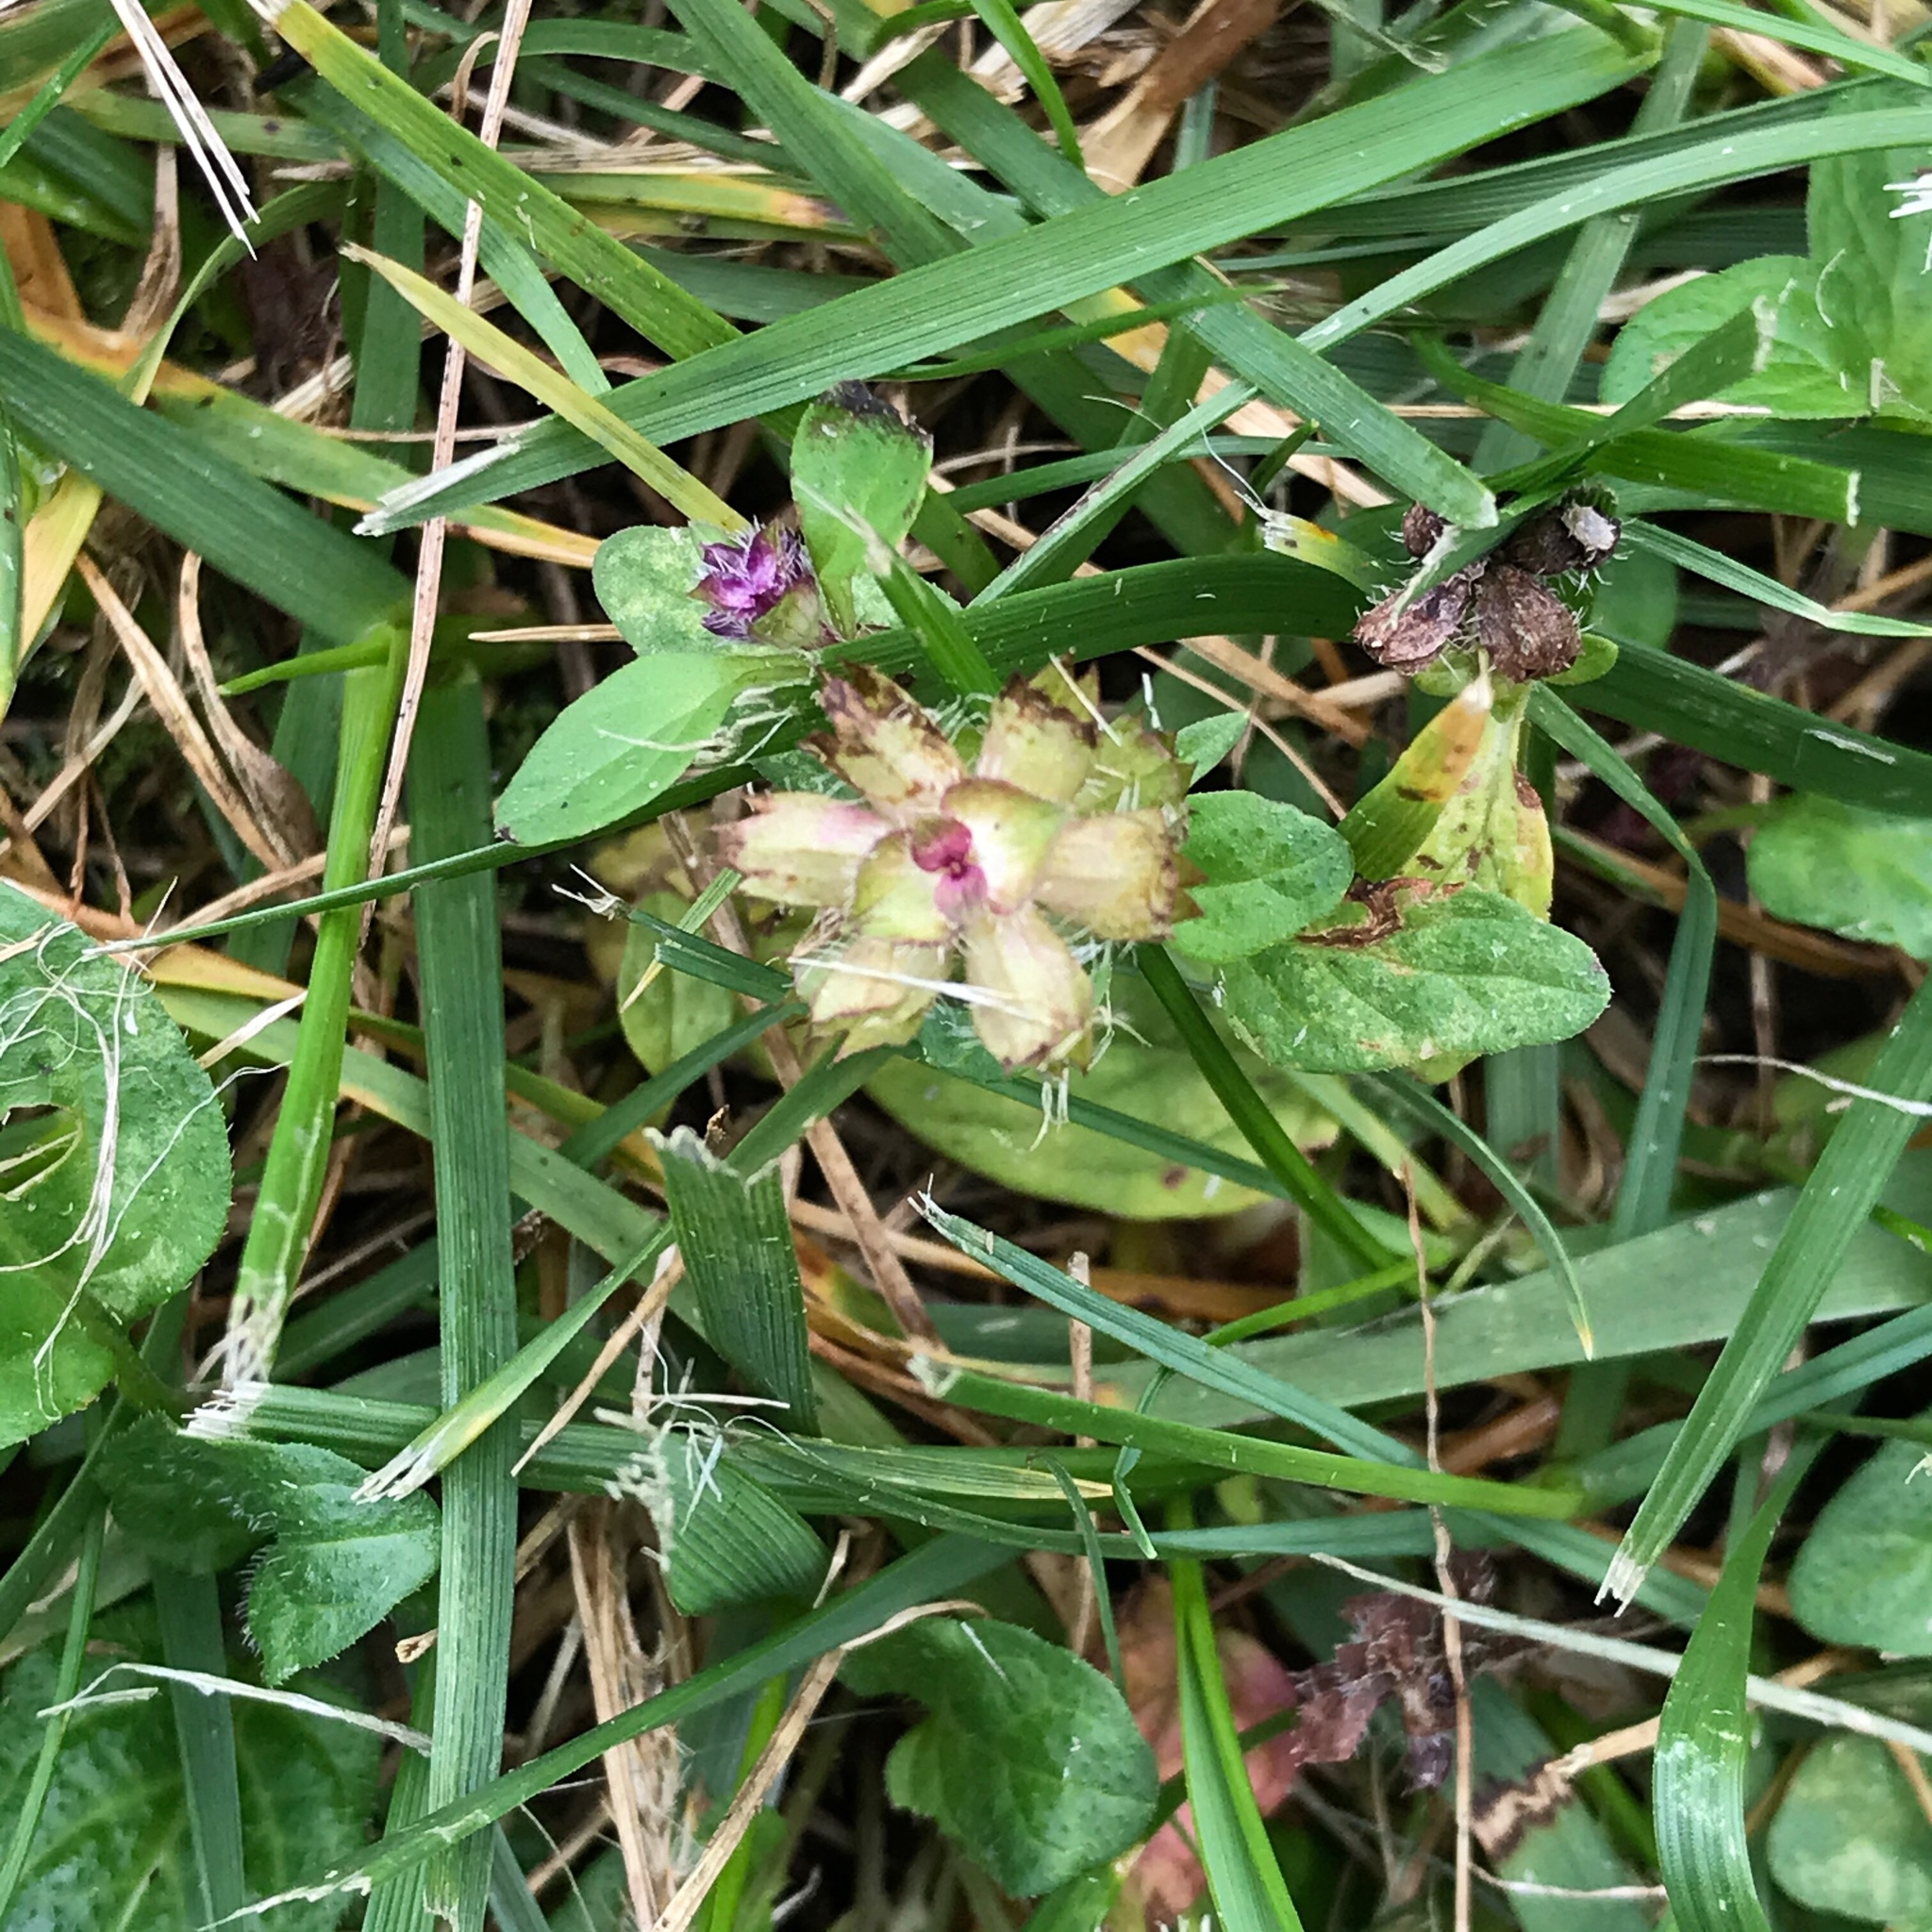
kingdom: Plantae
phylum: Tracheophyta
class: Magnoliopsida
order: Lamiales
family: Lamiaceae
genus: Prunella
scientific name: Prunella vulgaris
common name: Heal-all
